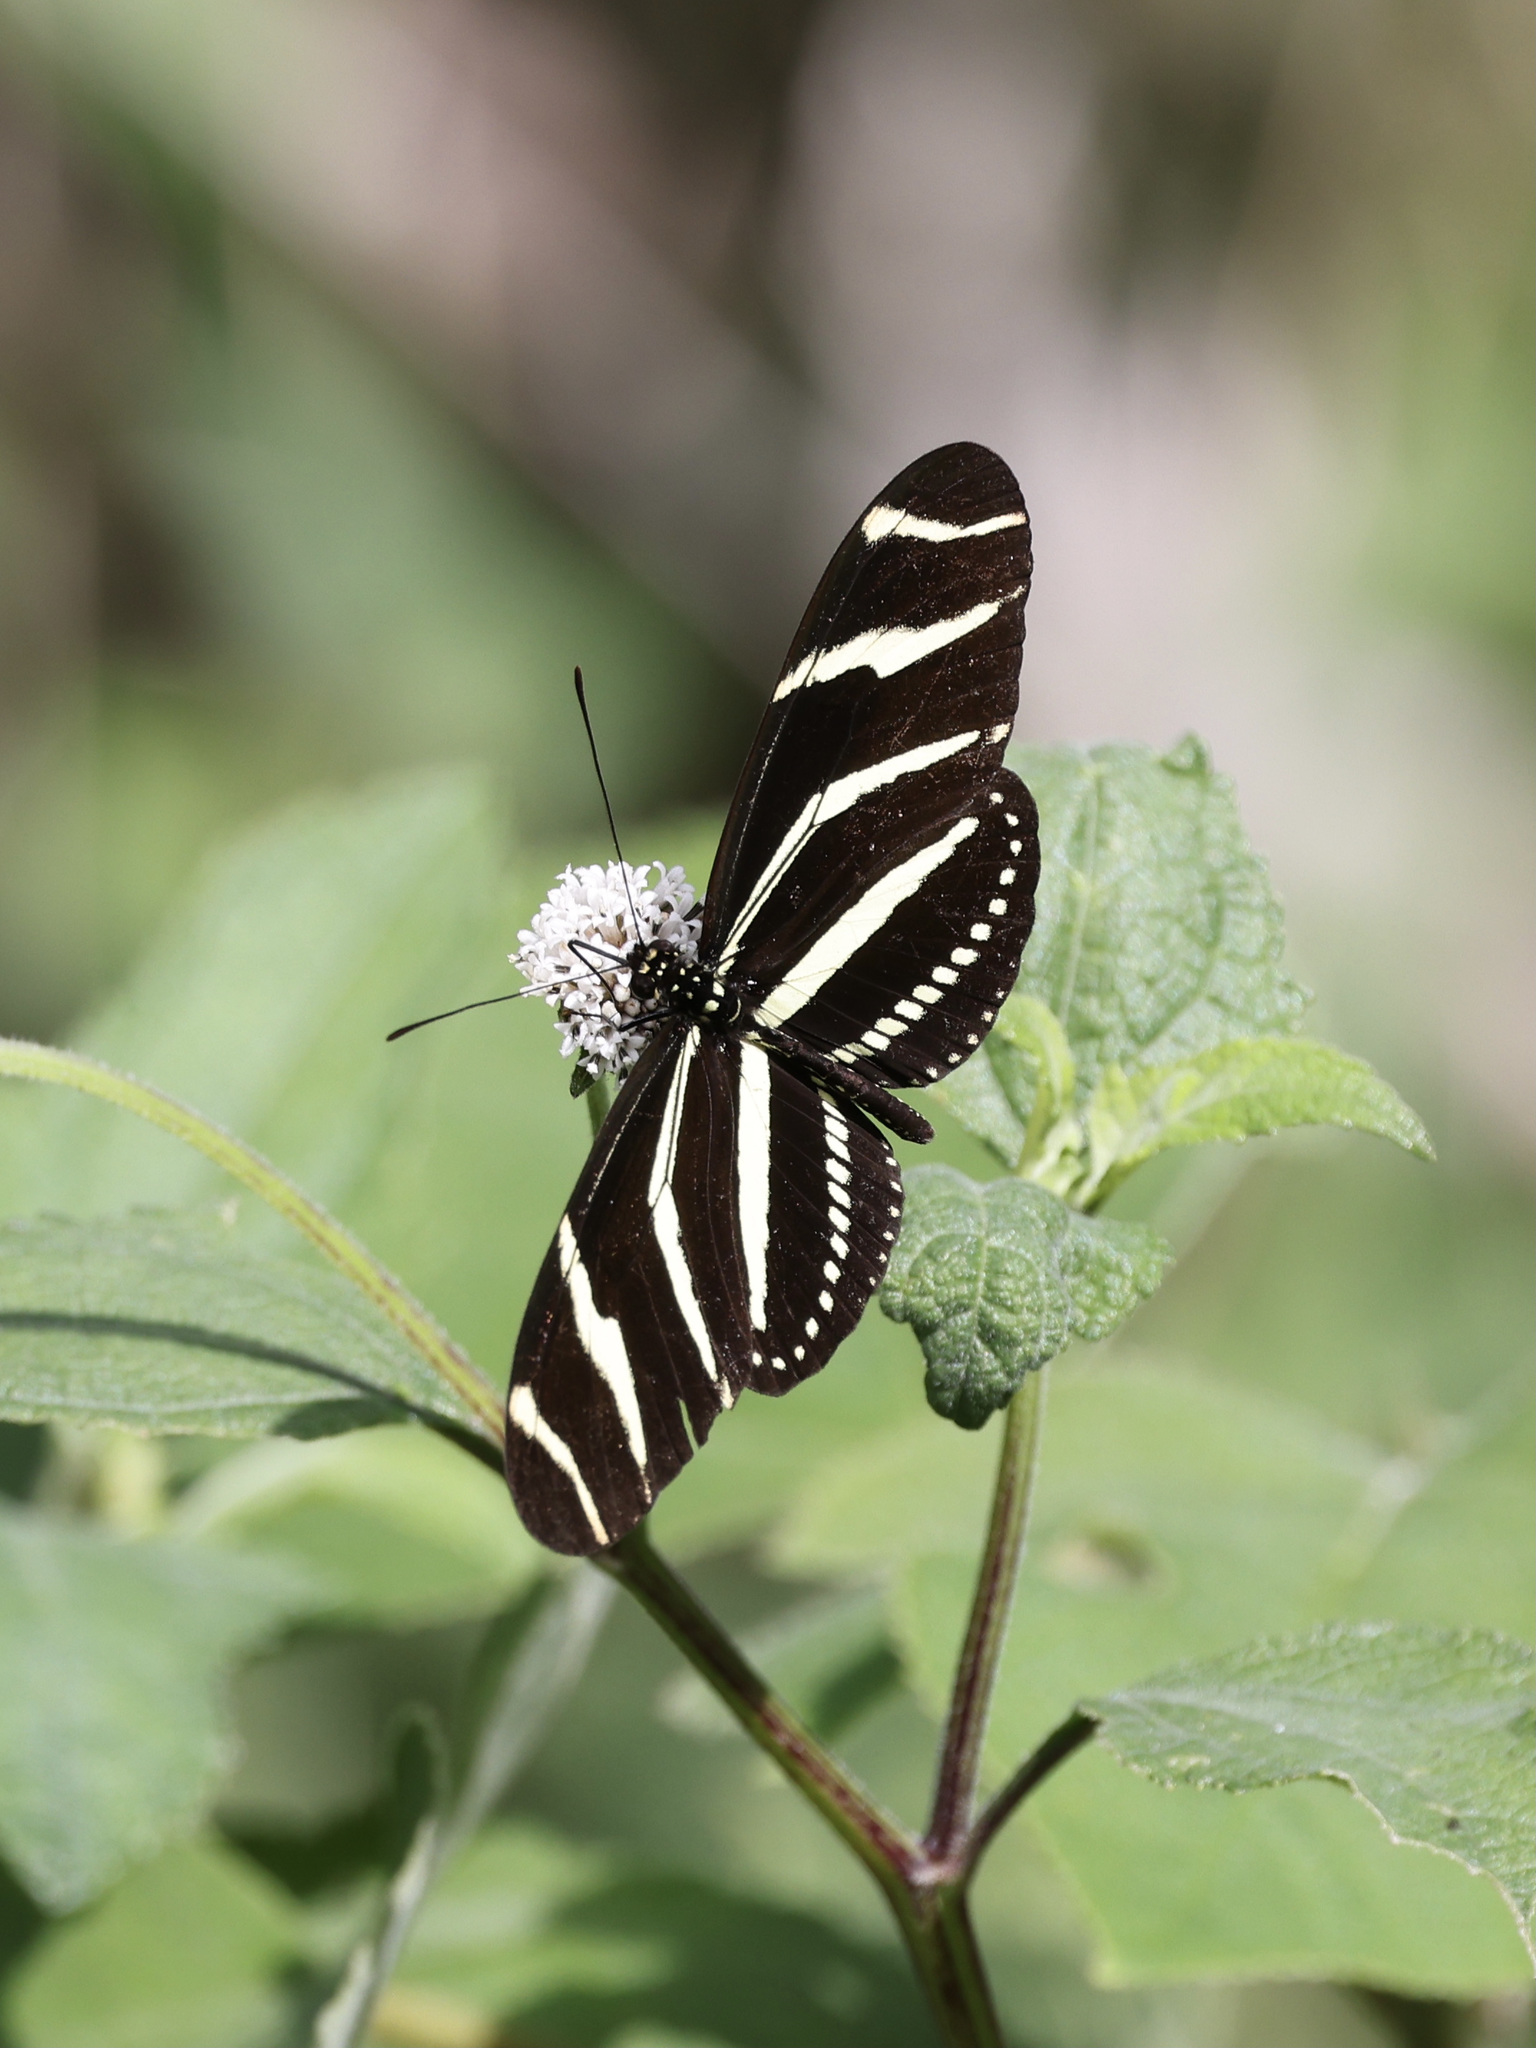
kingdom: Animalia
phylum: Arthropoda
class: Insecta
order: Lepidoptera
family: Nymphalidae
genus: Heliconius
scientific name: Heliconius charithonia
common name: Zebra long wing
